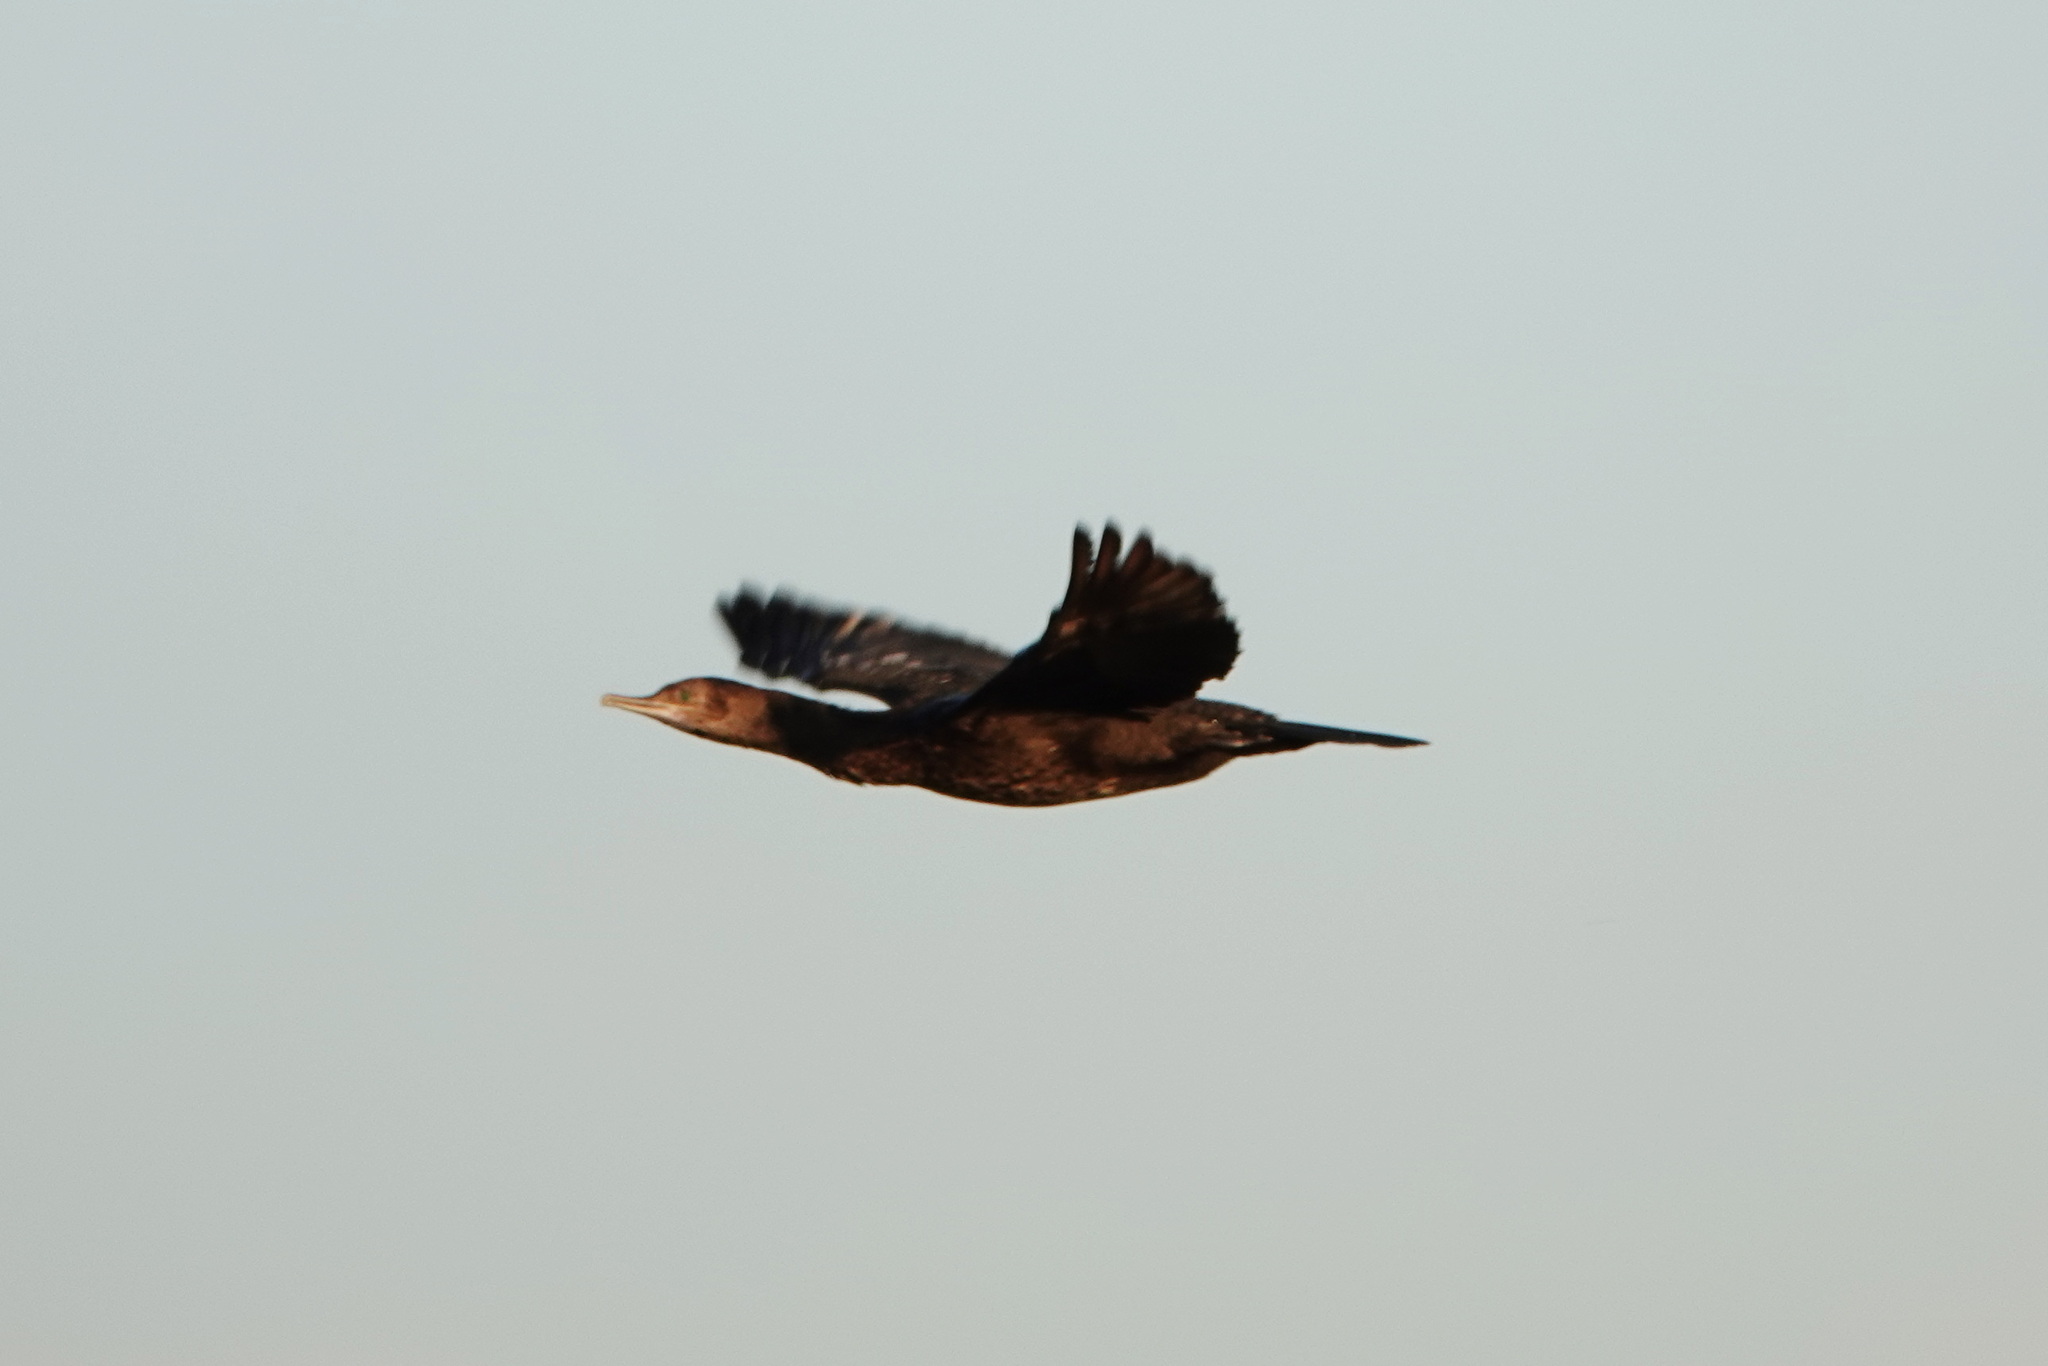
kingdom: Animalia
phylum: Chordata
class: Aves
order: Suliformes
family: Phalacrocoracidae
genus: Phalacrocorax
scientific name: Phalacrocorax sulcirostris
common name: Little black cormorant
